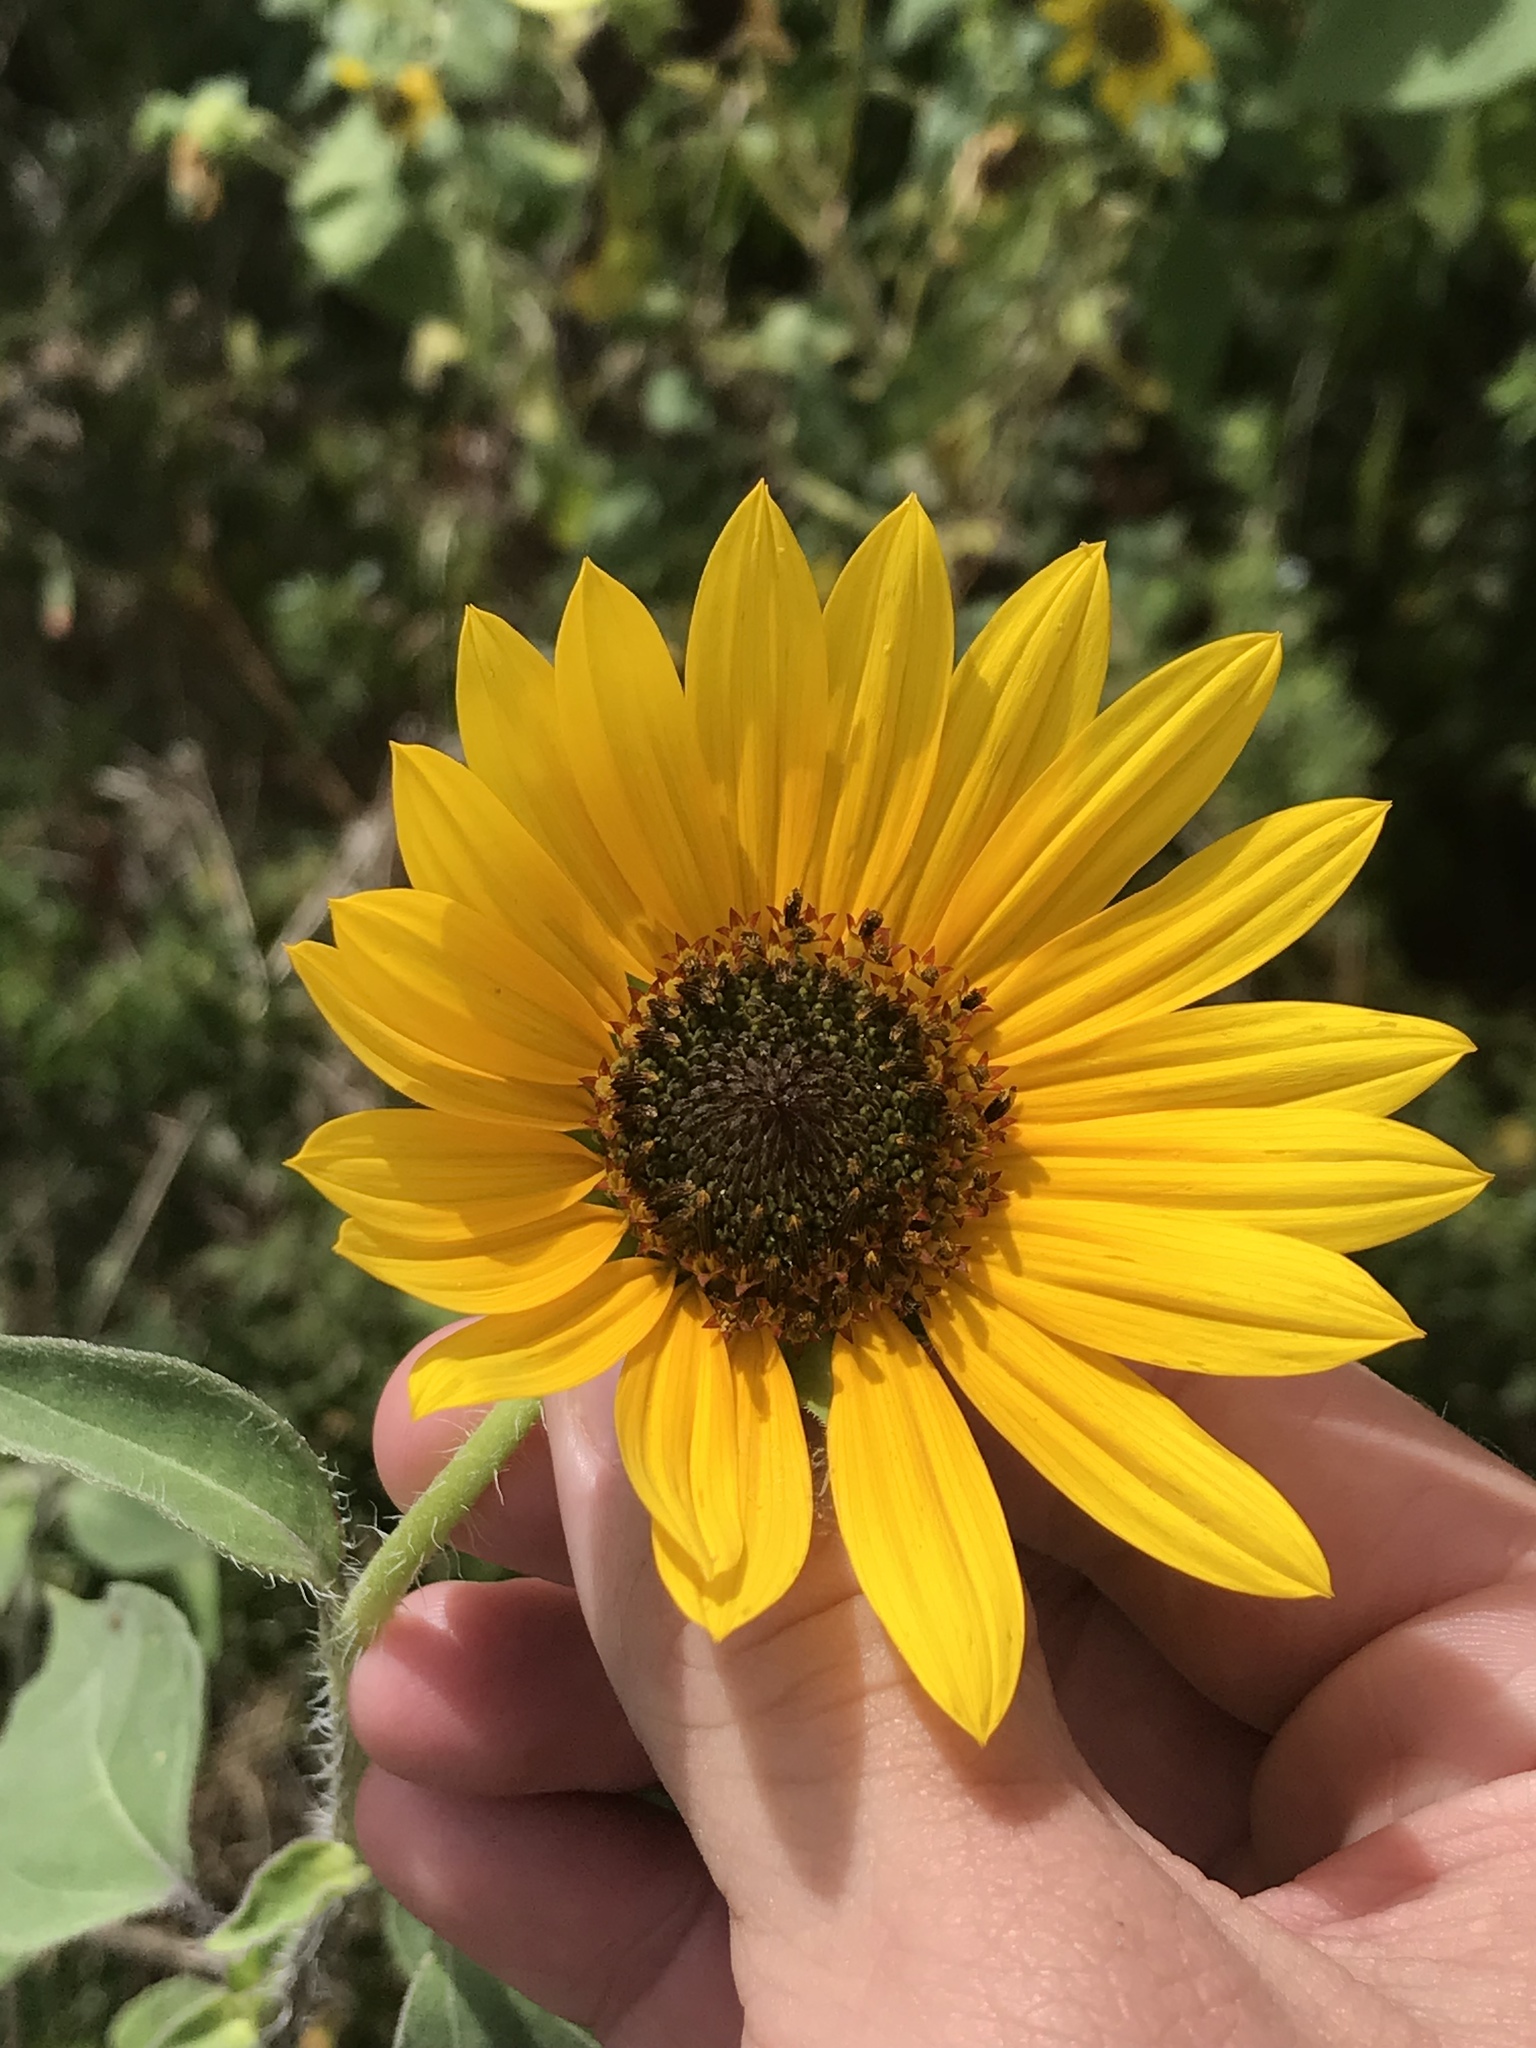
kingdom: Plantae
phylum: Tracheophyta
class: Magnoliopsida
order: Asterales
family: Asteraceae
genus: Helianthus
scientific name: Helianthus annuus
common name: Sunflower
